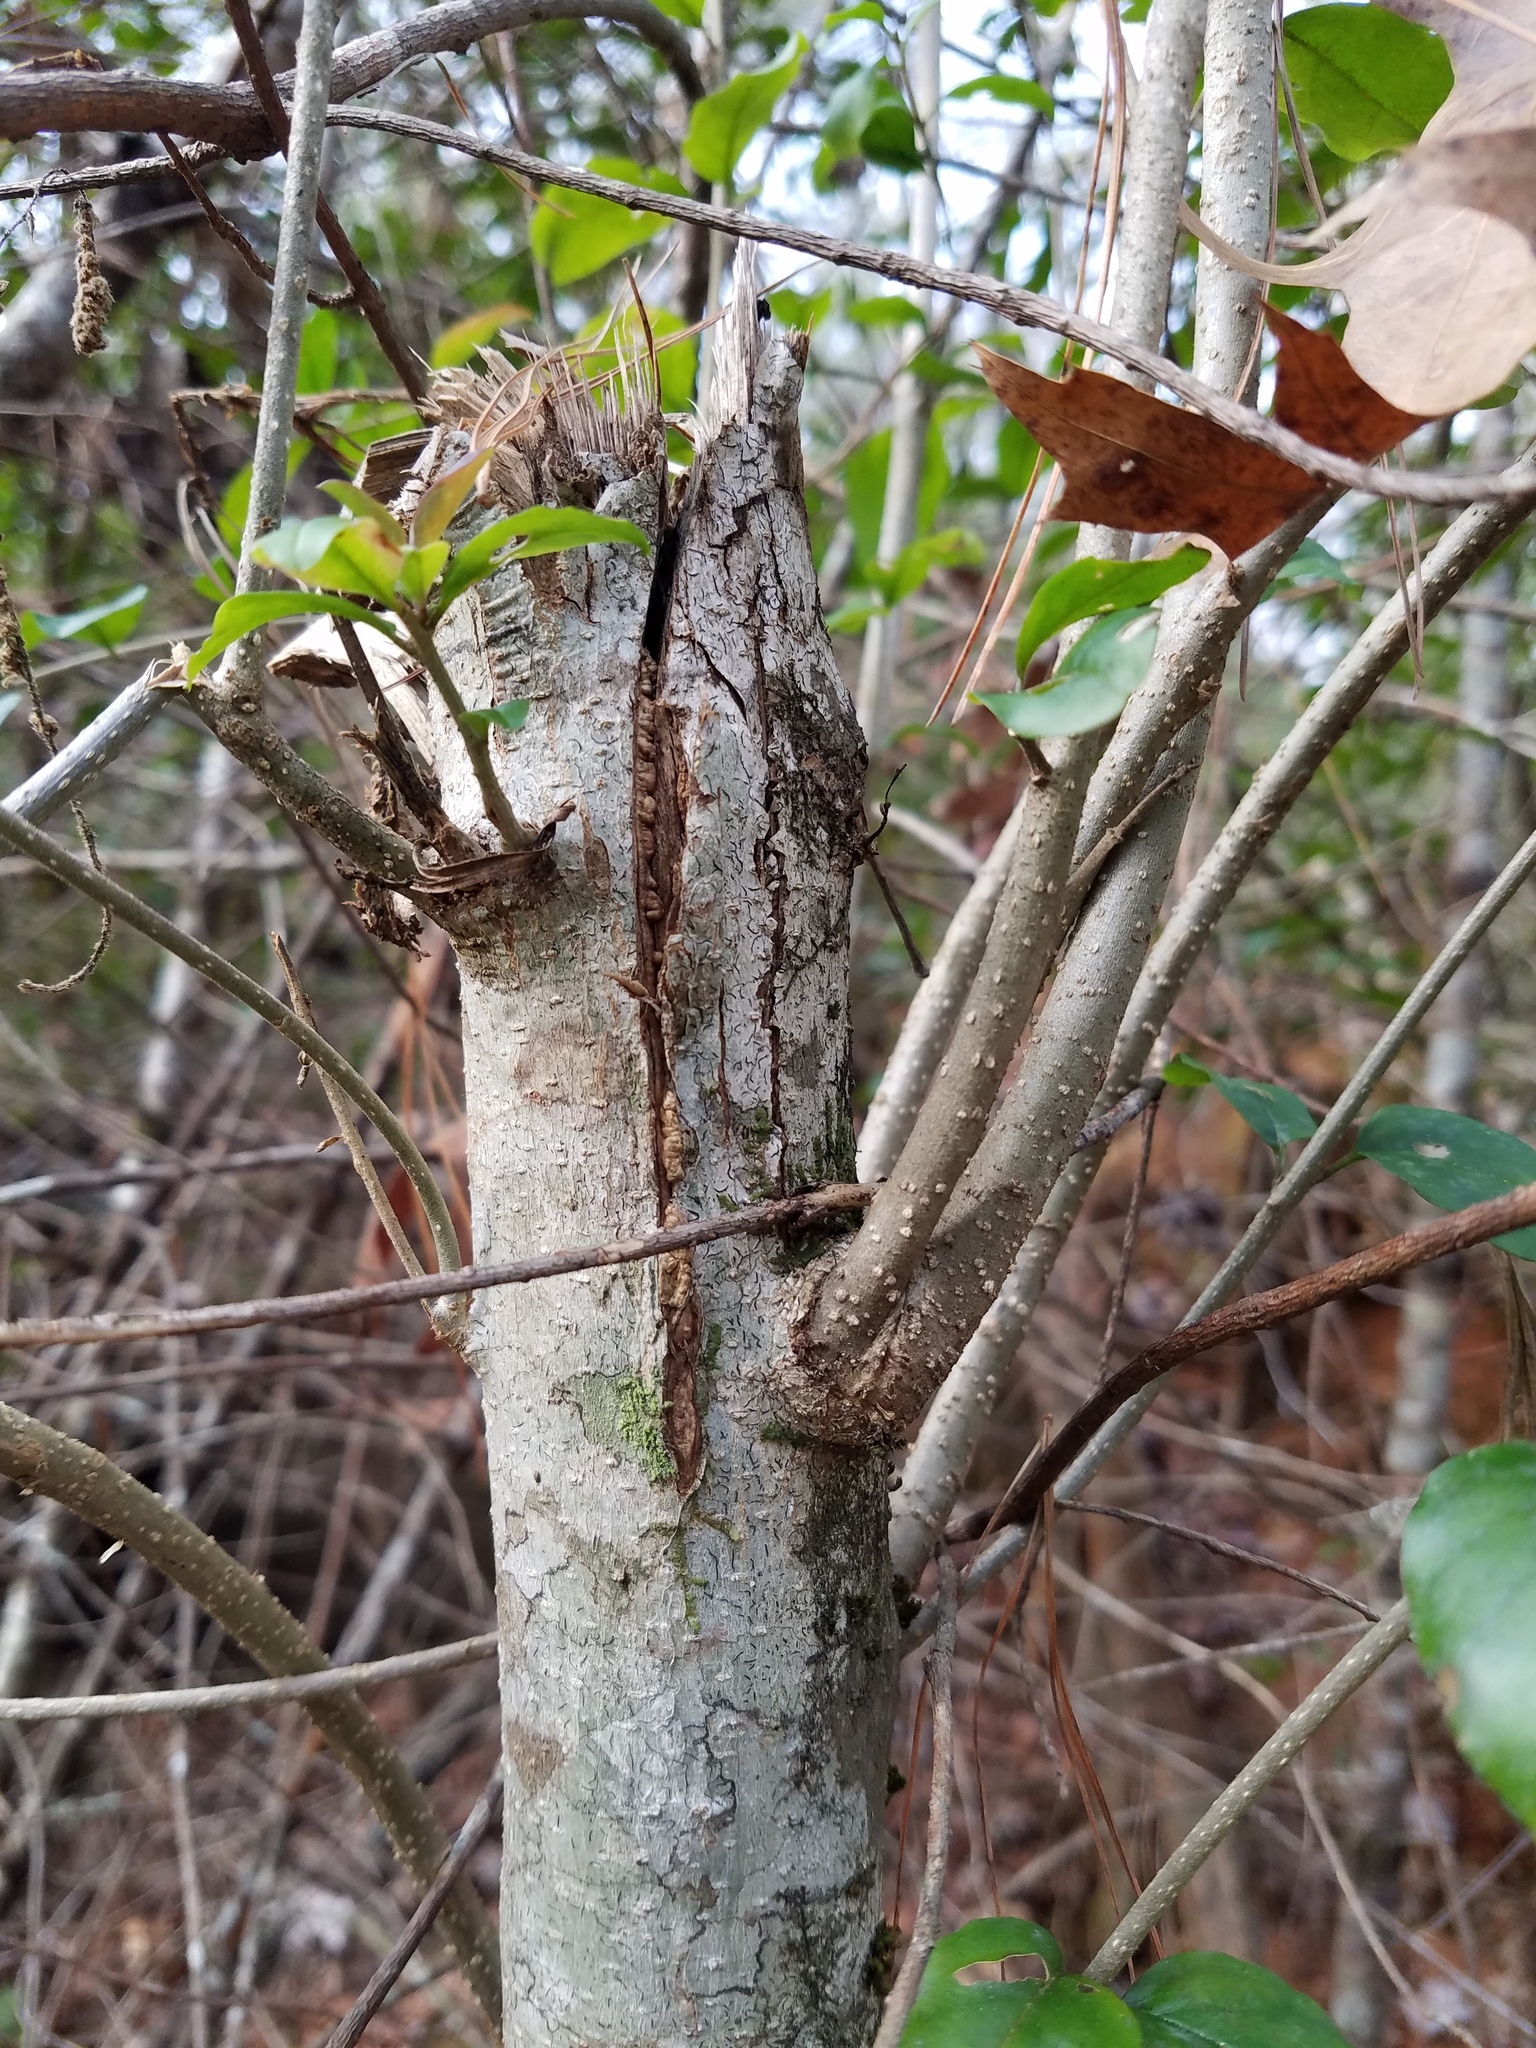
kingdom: Plantae
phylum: Tracheophyta
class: Magnoliopsida
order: Lamiales
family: Oleaceae
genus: Ligustrum
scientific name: Ligustrum sinense
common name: Chinese privet
